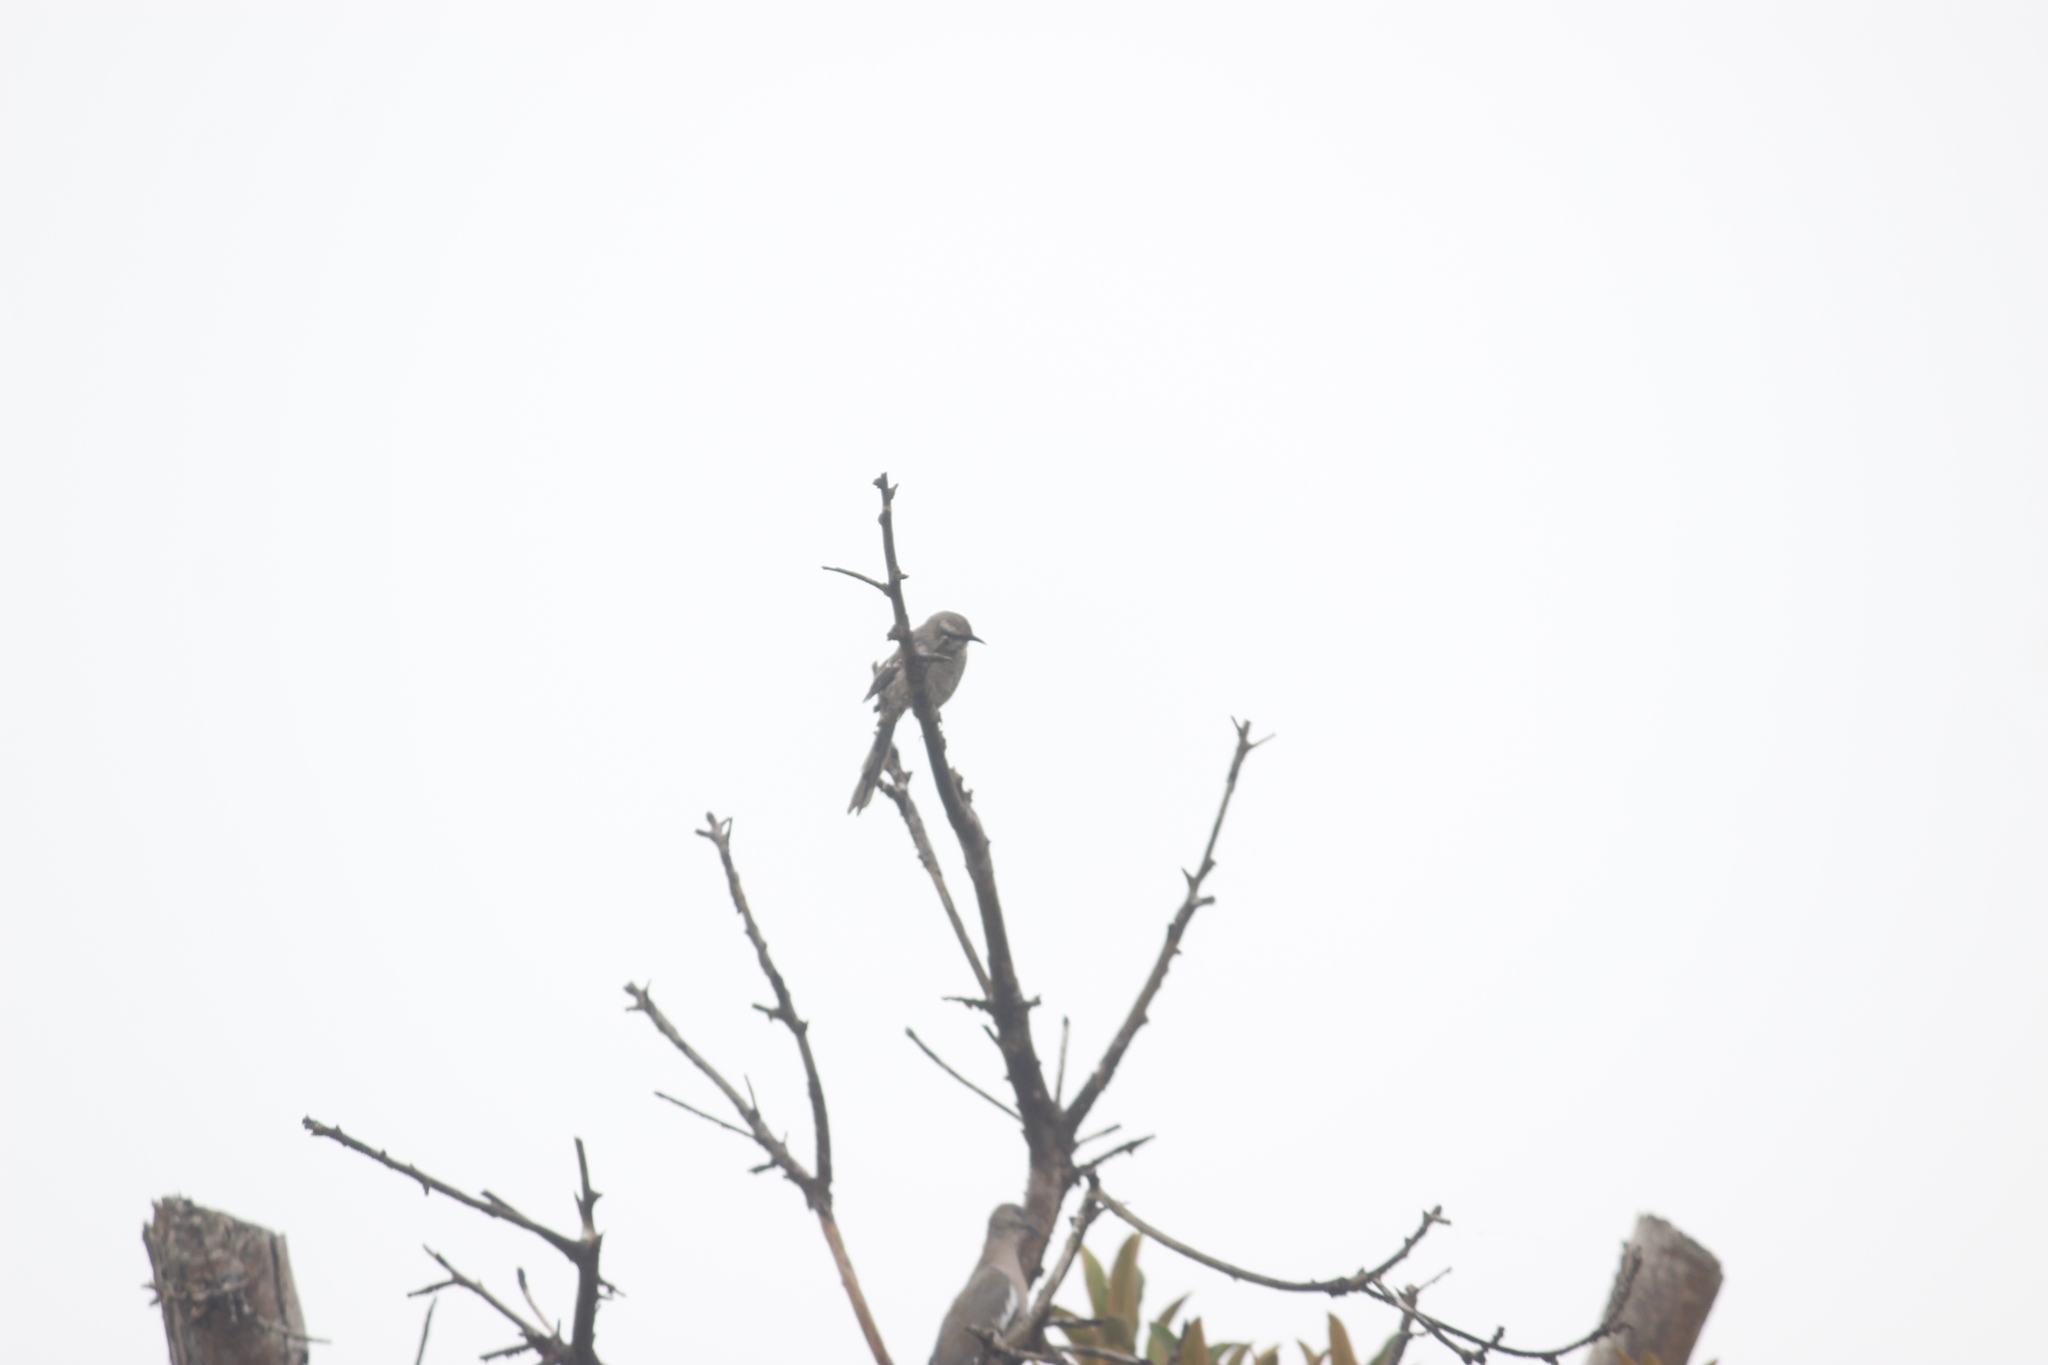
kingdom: Animalia
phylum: Chordata
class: Aves
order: Passeriformes
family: Mimidae
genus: Mimus
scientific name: Mimus longicaudatus
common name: Long-tailed mockingbird
